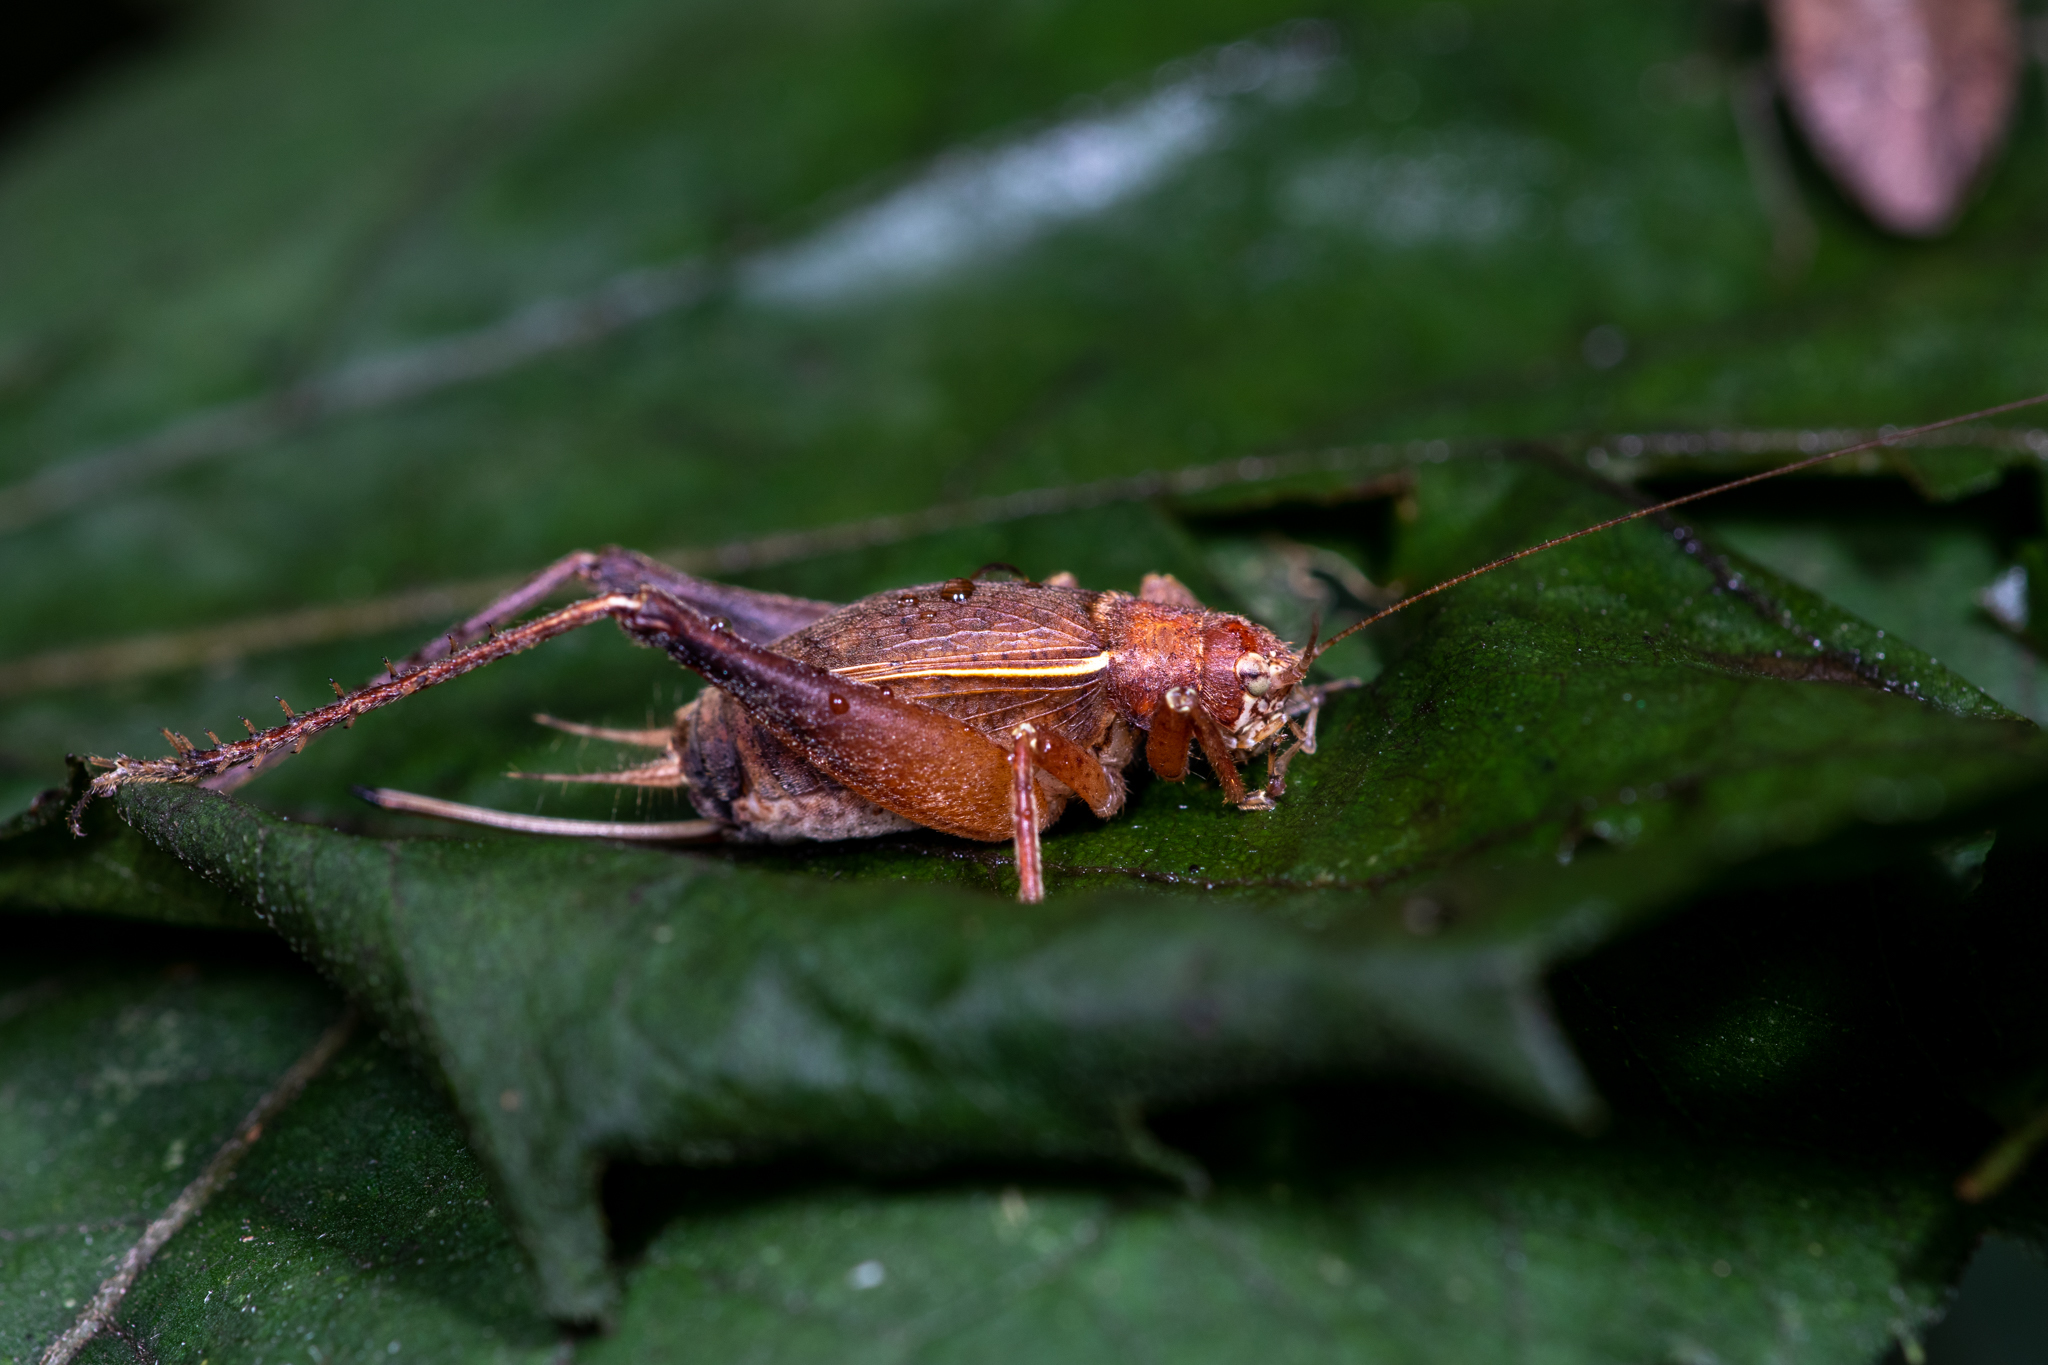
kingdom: Animalia
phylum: Arthropoda
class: Insecta
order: Orthoptera
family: Gryllidae
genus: Hapithus
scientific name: Hapithus agitator
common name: Restless bush cricket
